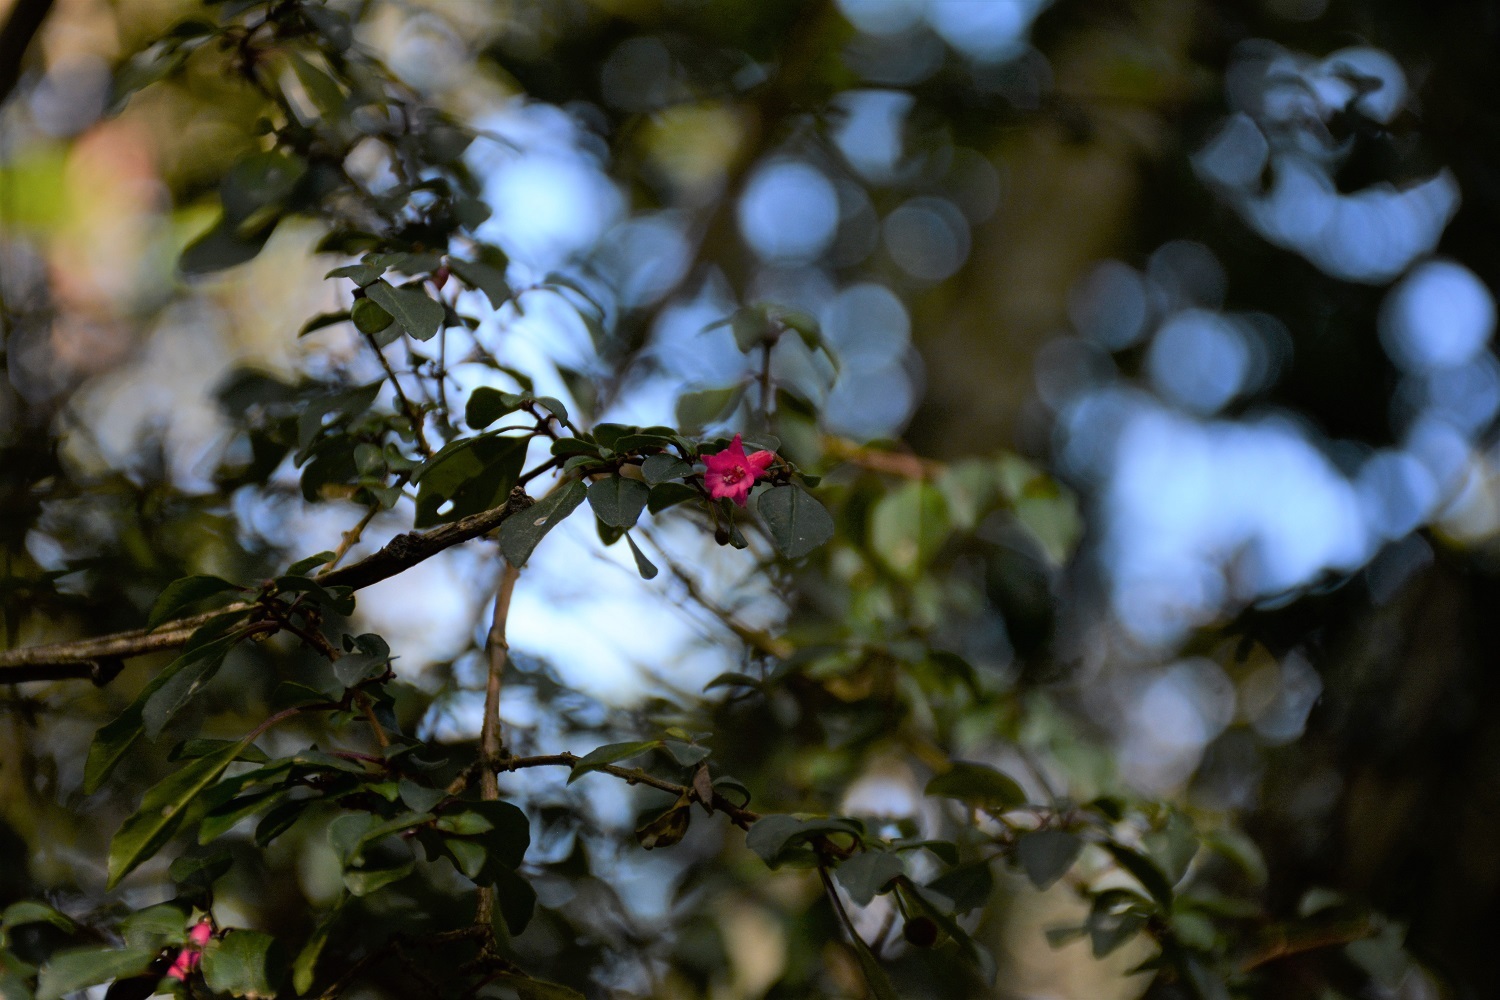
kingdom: Plantae
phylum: Tracheophyta
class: Magnoliopsida
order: Myrtales
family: Onagraceae
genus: Fuchsia
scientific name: Fuchsia microphylla
